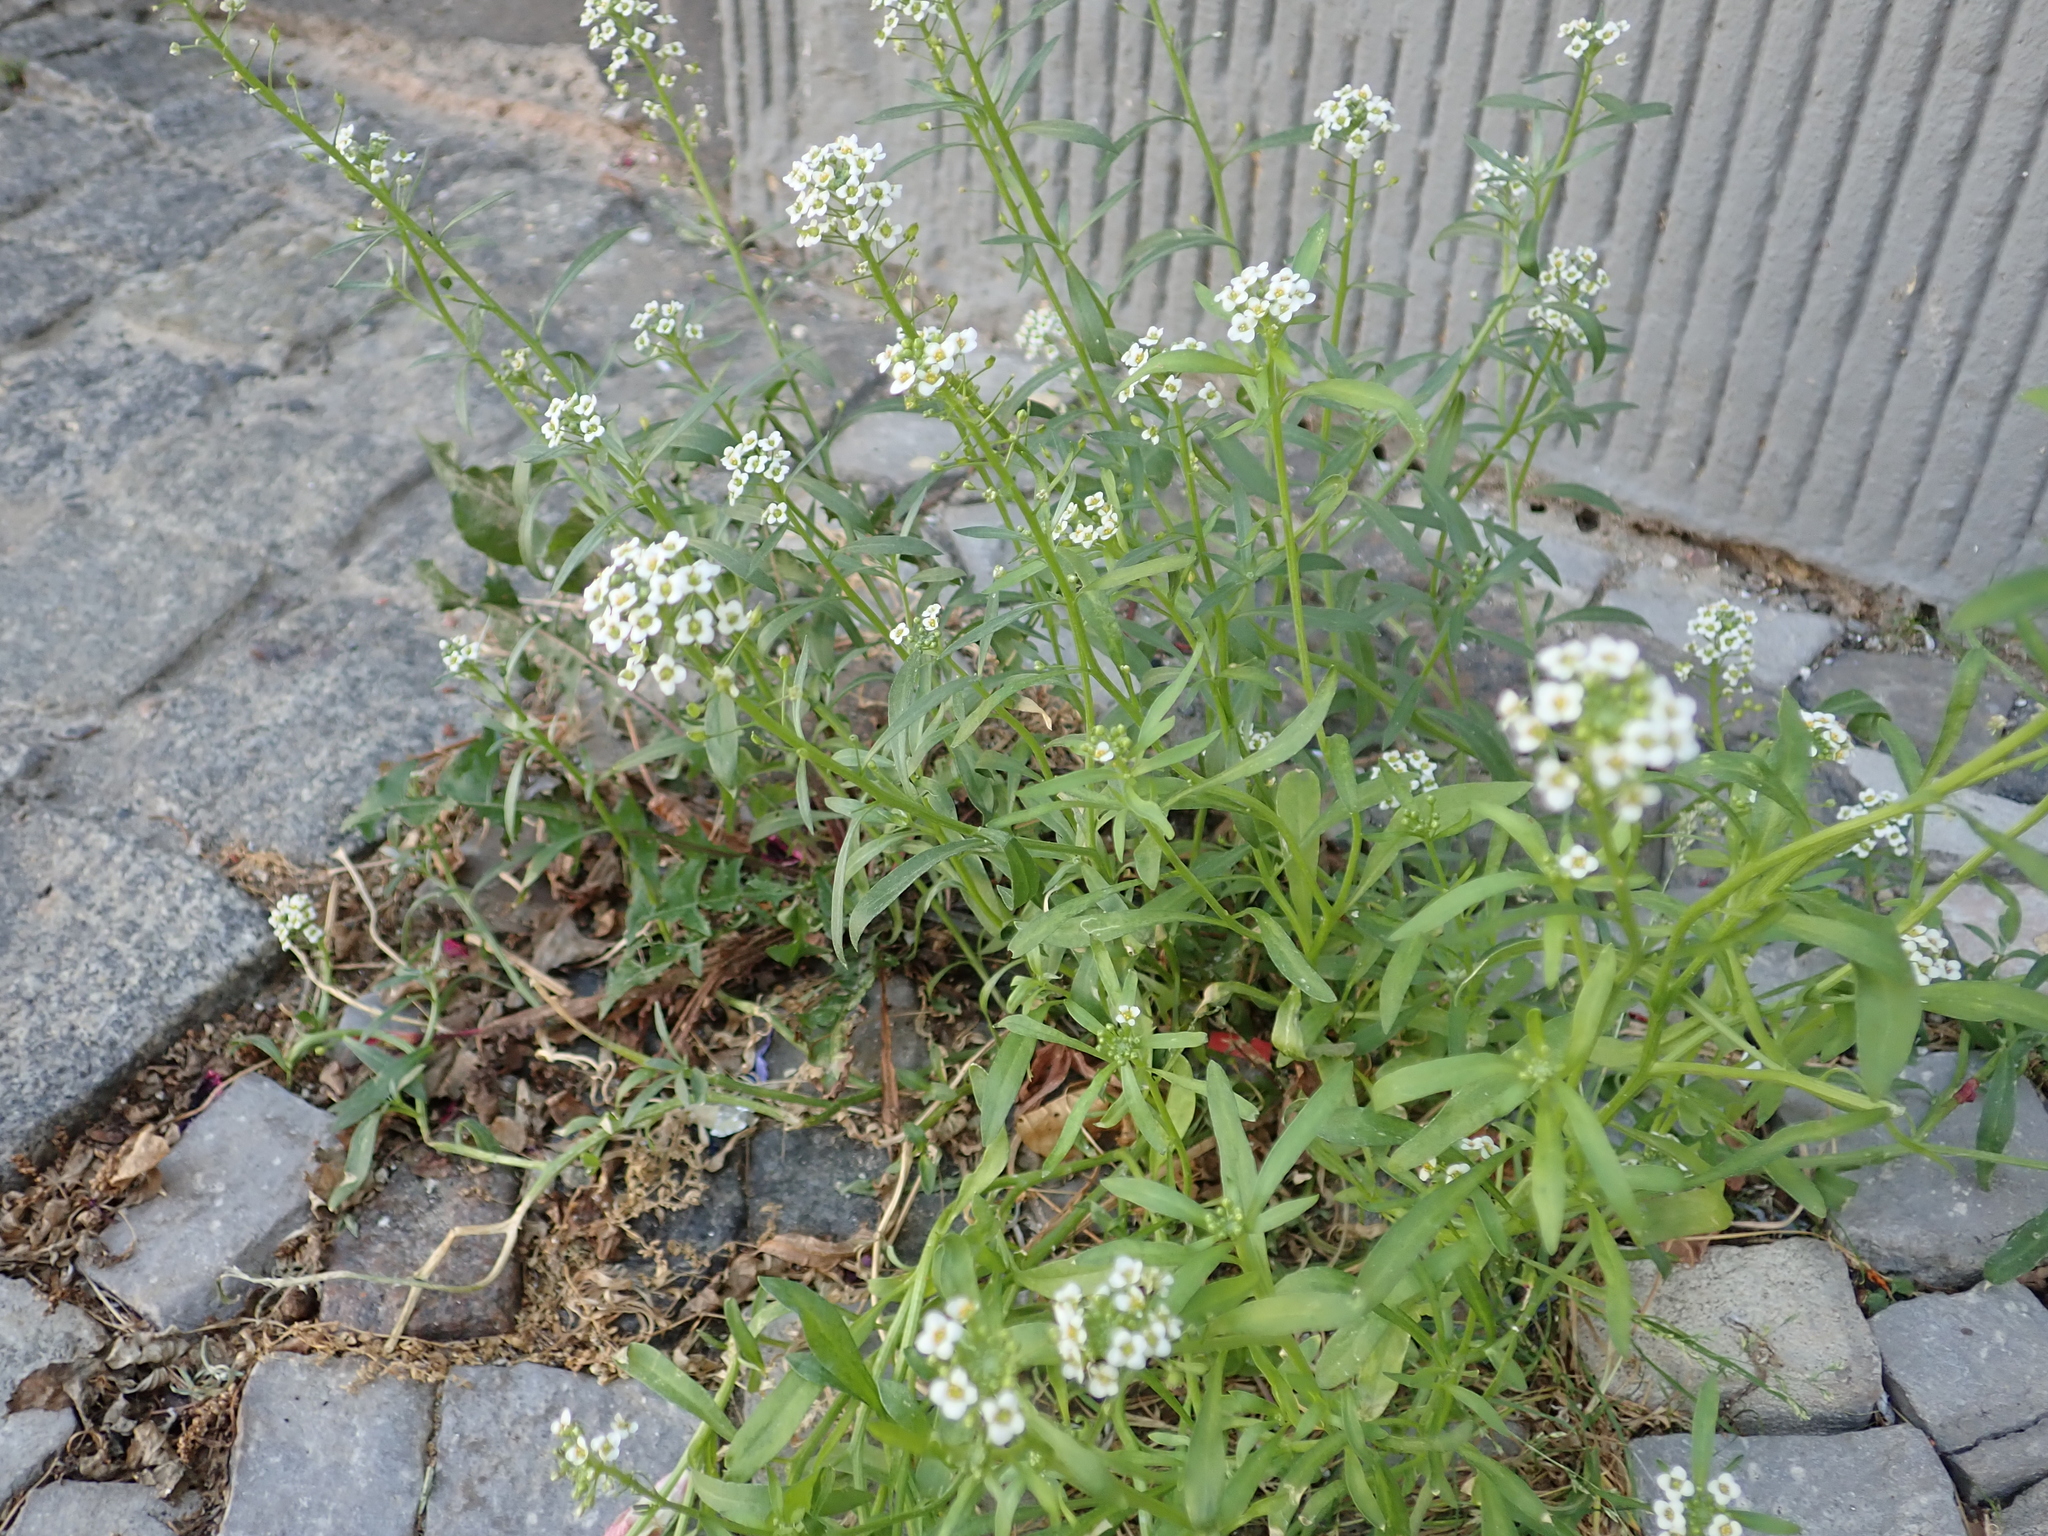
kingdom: Plantae
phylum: Tracheophyta
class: Magnoliopsida
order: Brassicales
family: Brassicaceae
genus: Lobularia
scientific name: Lobularia maritima
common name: Sweet alison
